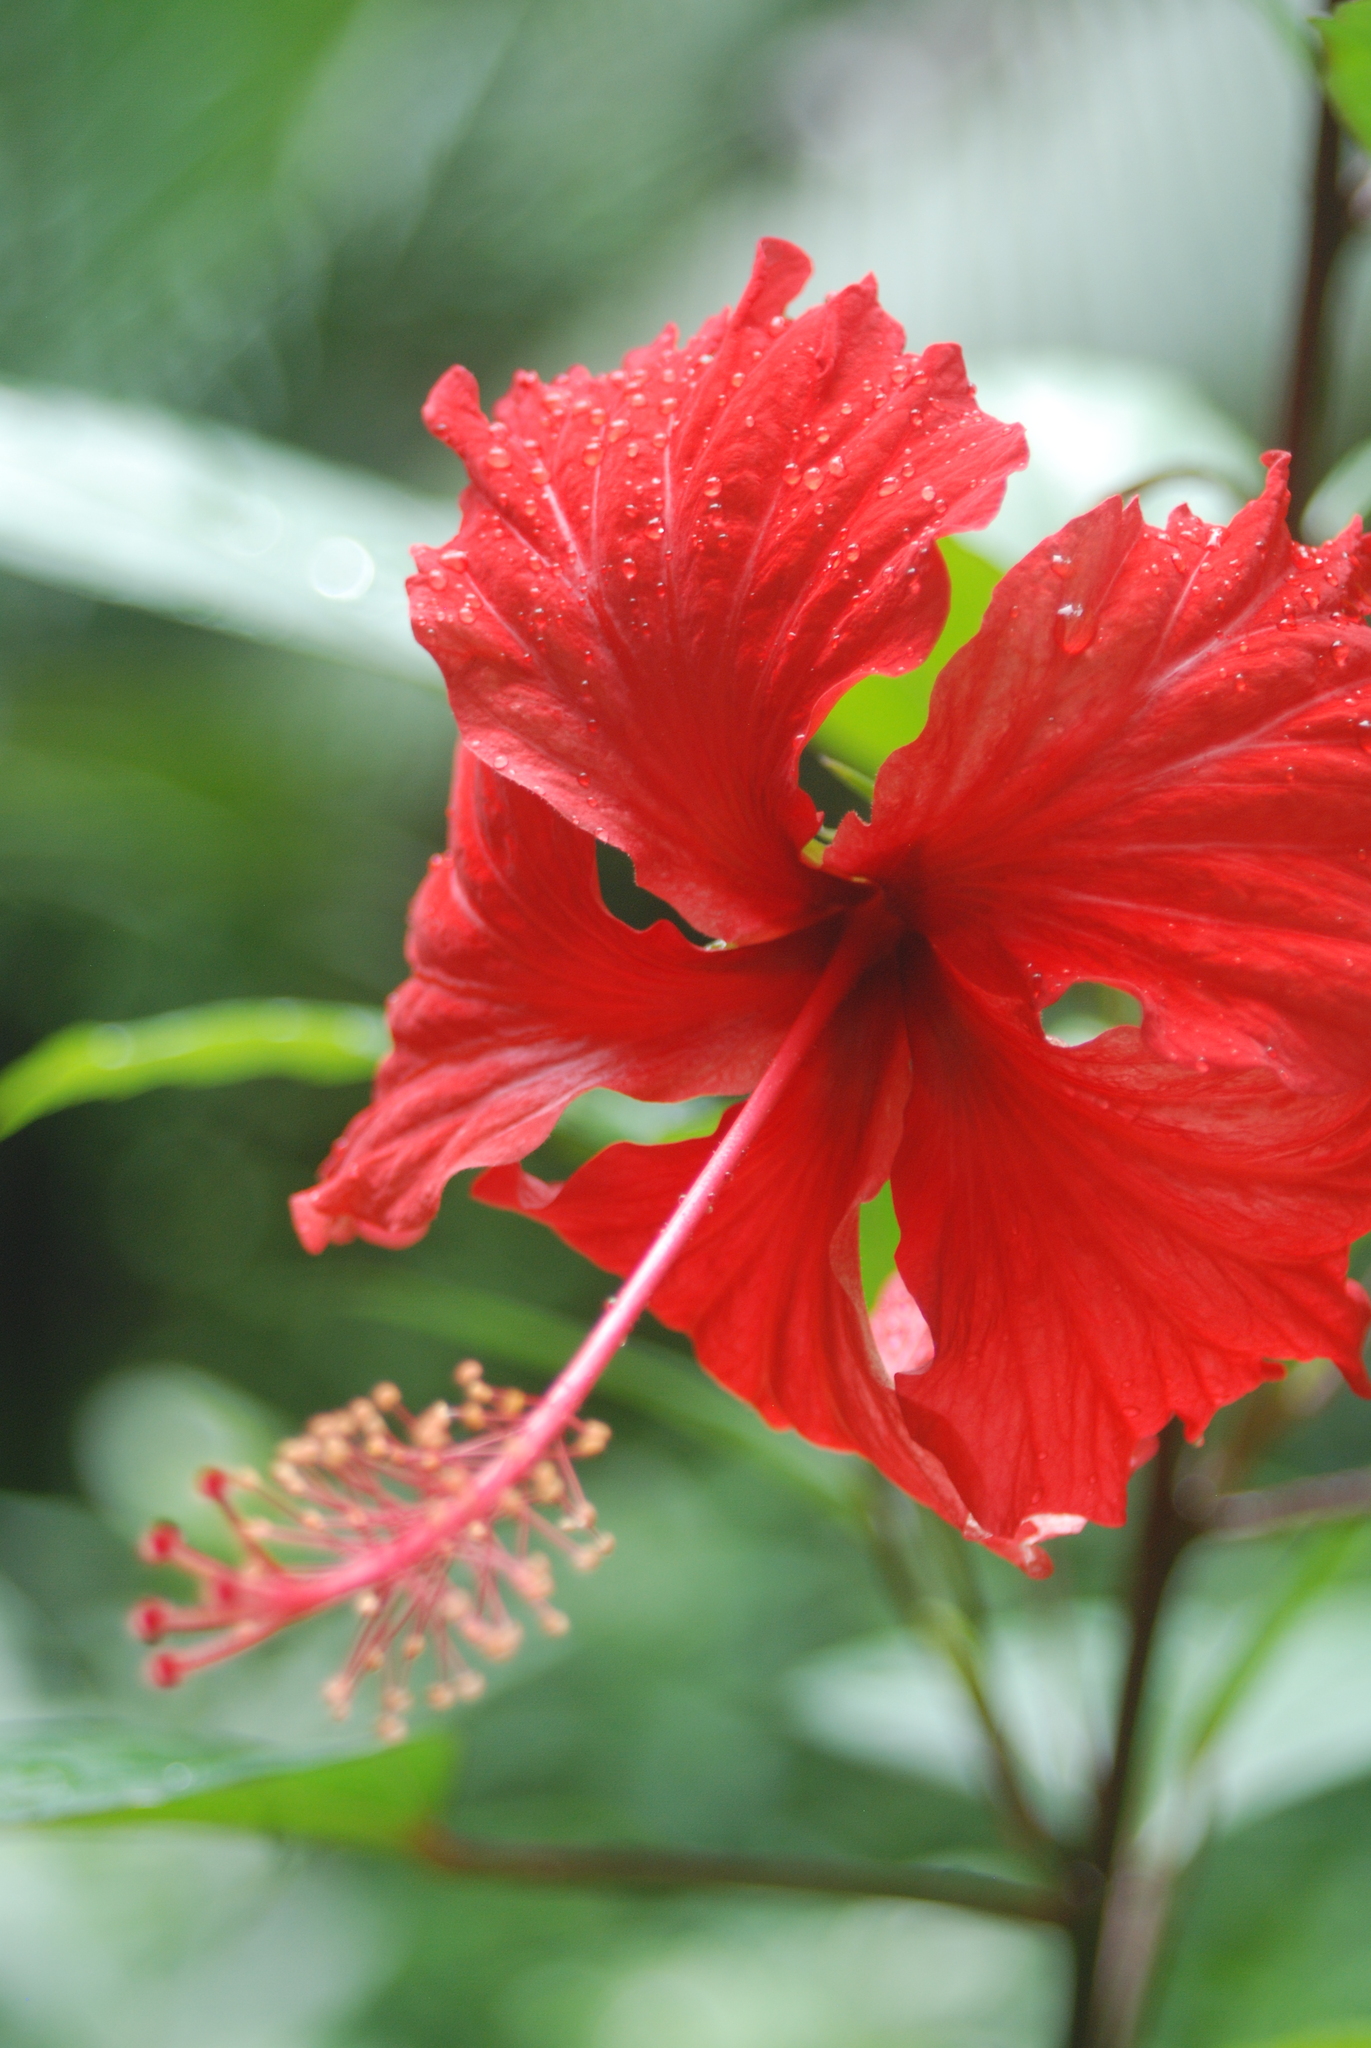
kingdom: Plantae
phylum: Tracheophyta
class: Magnoliopsida
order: Malvales
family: Malvaceae
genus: Hibiscus
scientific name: Hibiscus archeri
